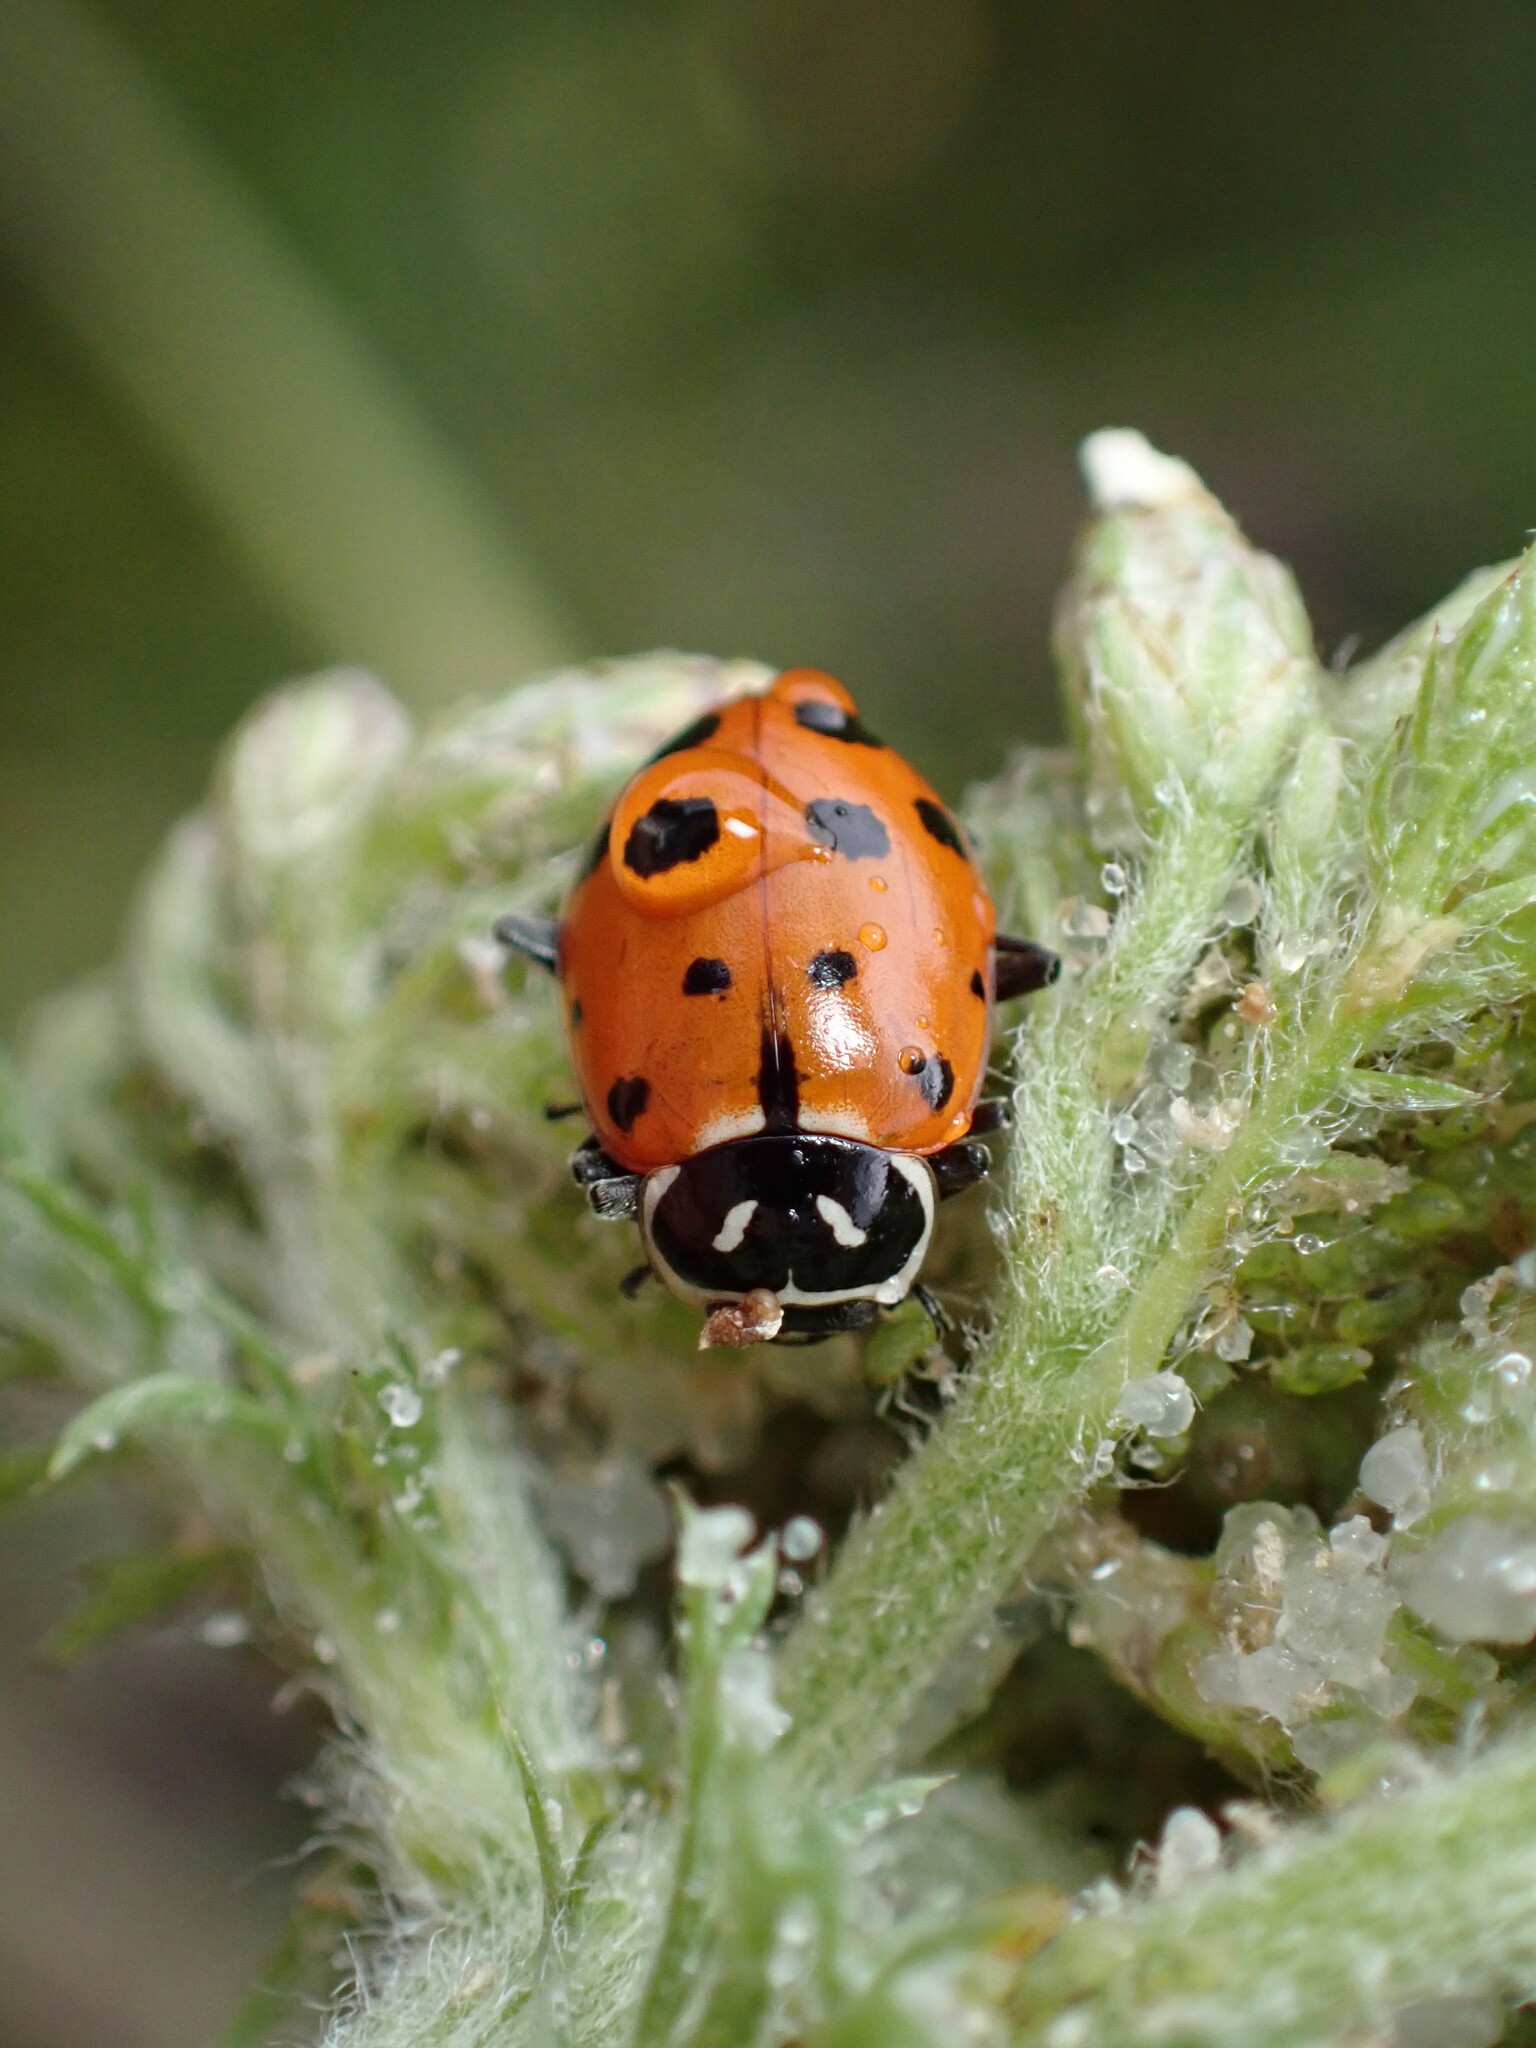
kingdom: Animalia
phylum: Arthropoda
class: Insecta
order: Coleoptera
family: Coccinellidae
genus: Hippodamia
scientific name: Hippodamia convergens
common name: Convergent lady beetle
